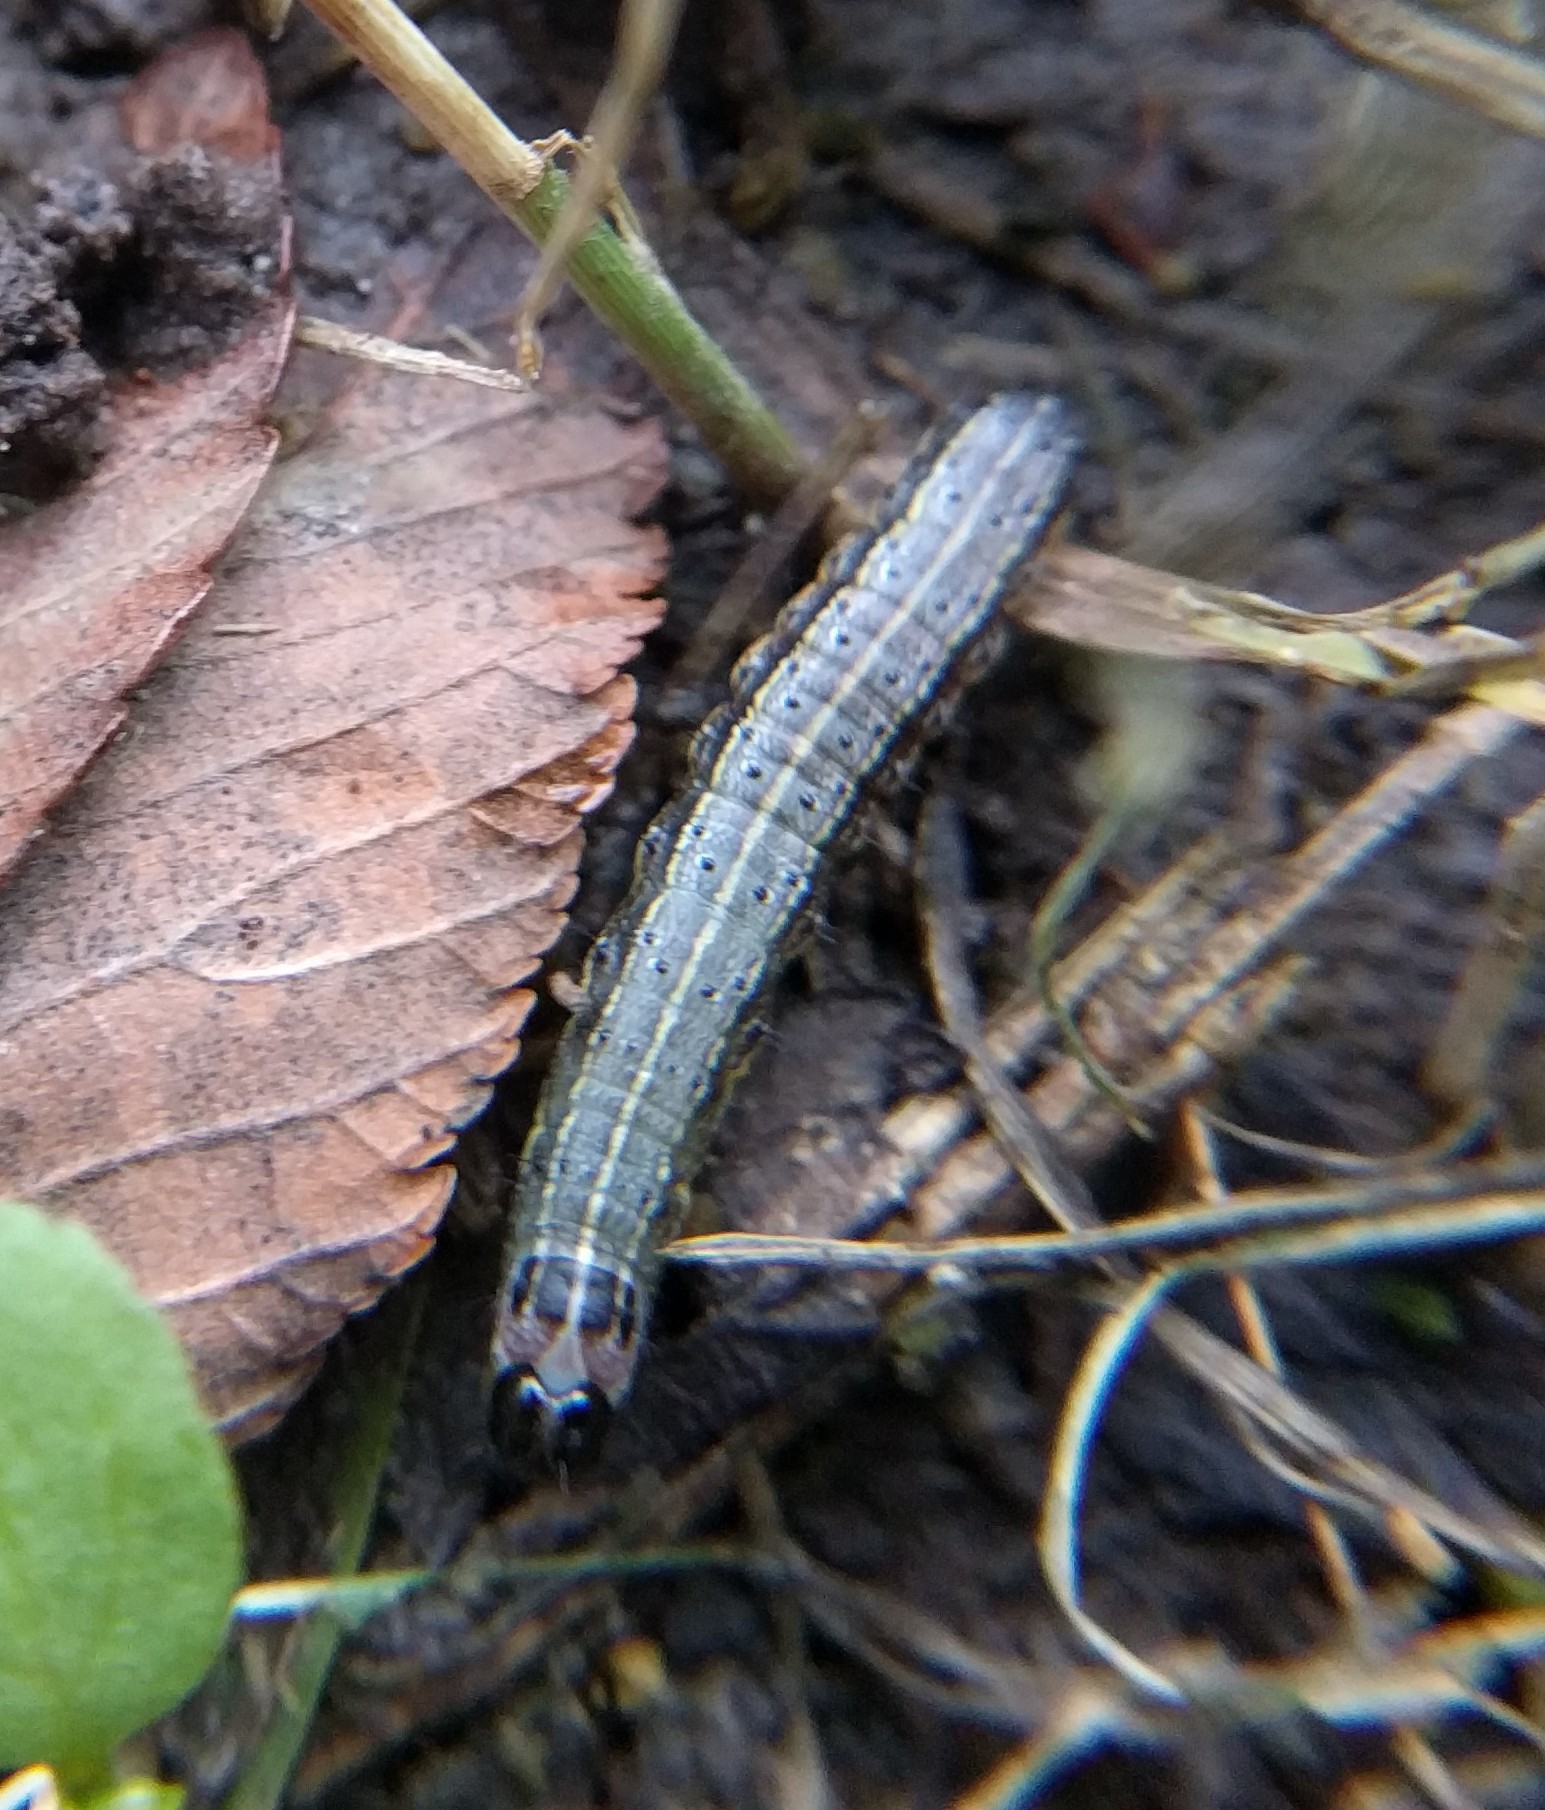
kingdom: Animalia
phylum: Arthropoda
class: Insecta
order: Lepidoptera
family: Noctuidae
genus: Spodoptera
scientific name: Spodoptera frugiperda
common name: Fall armyworm
